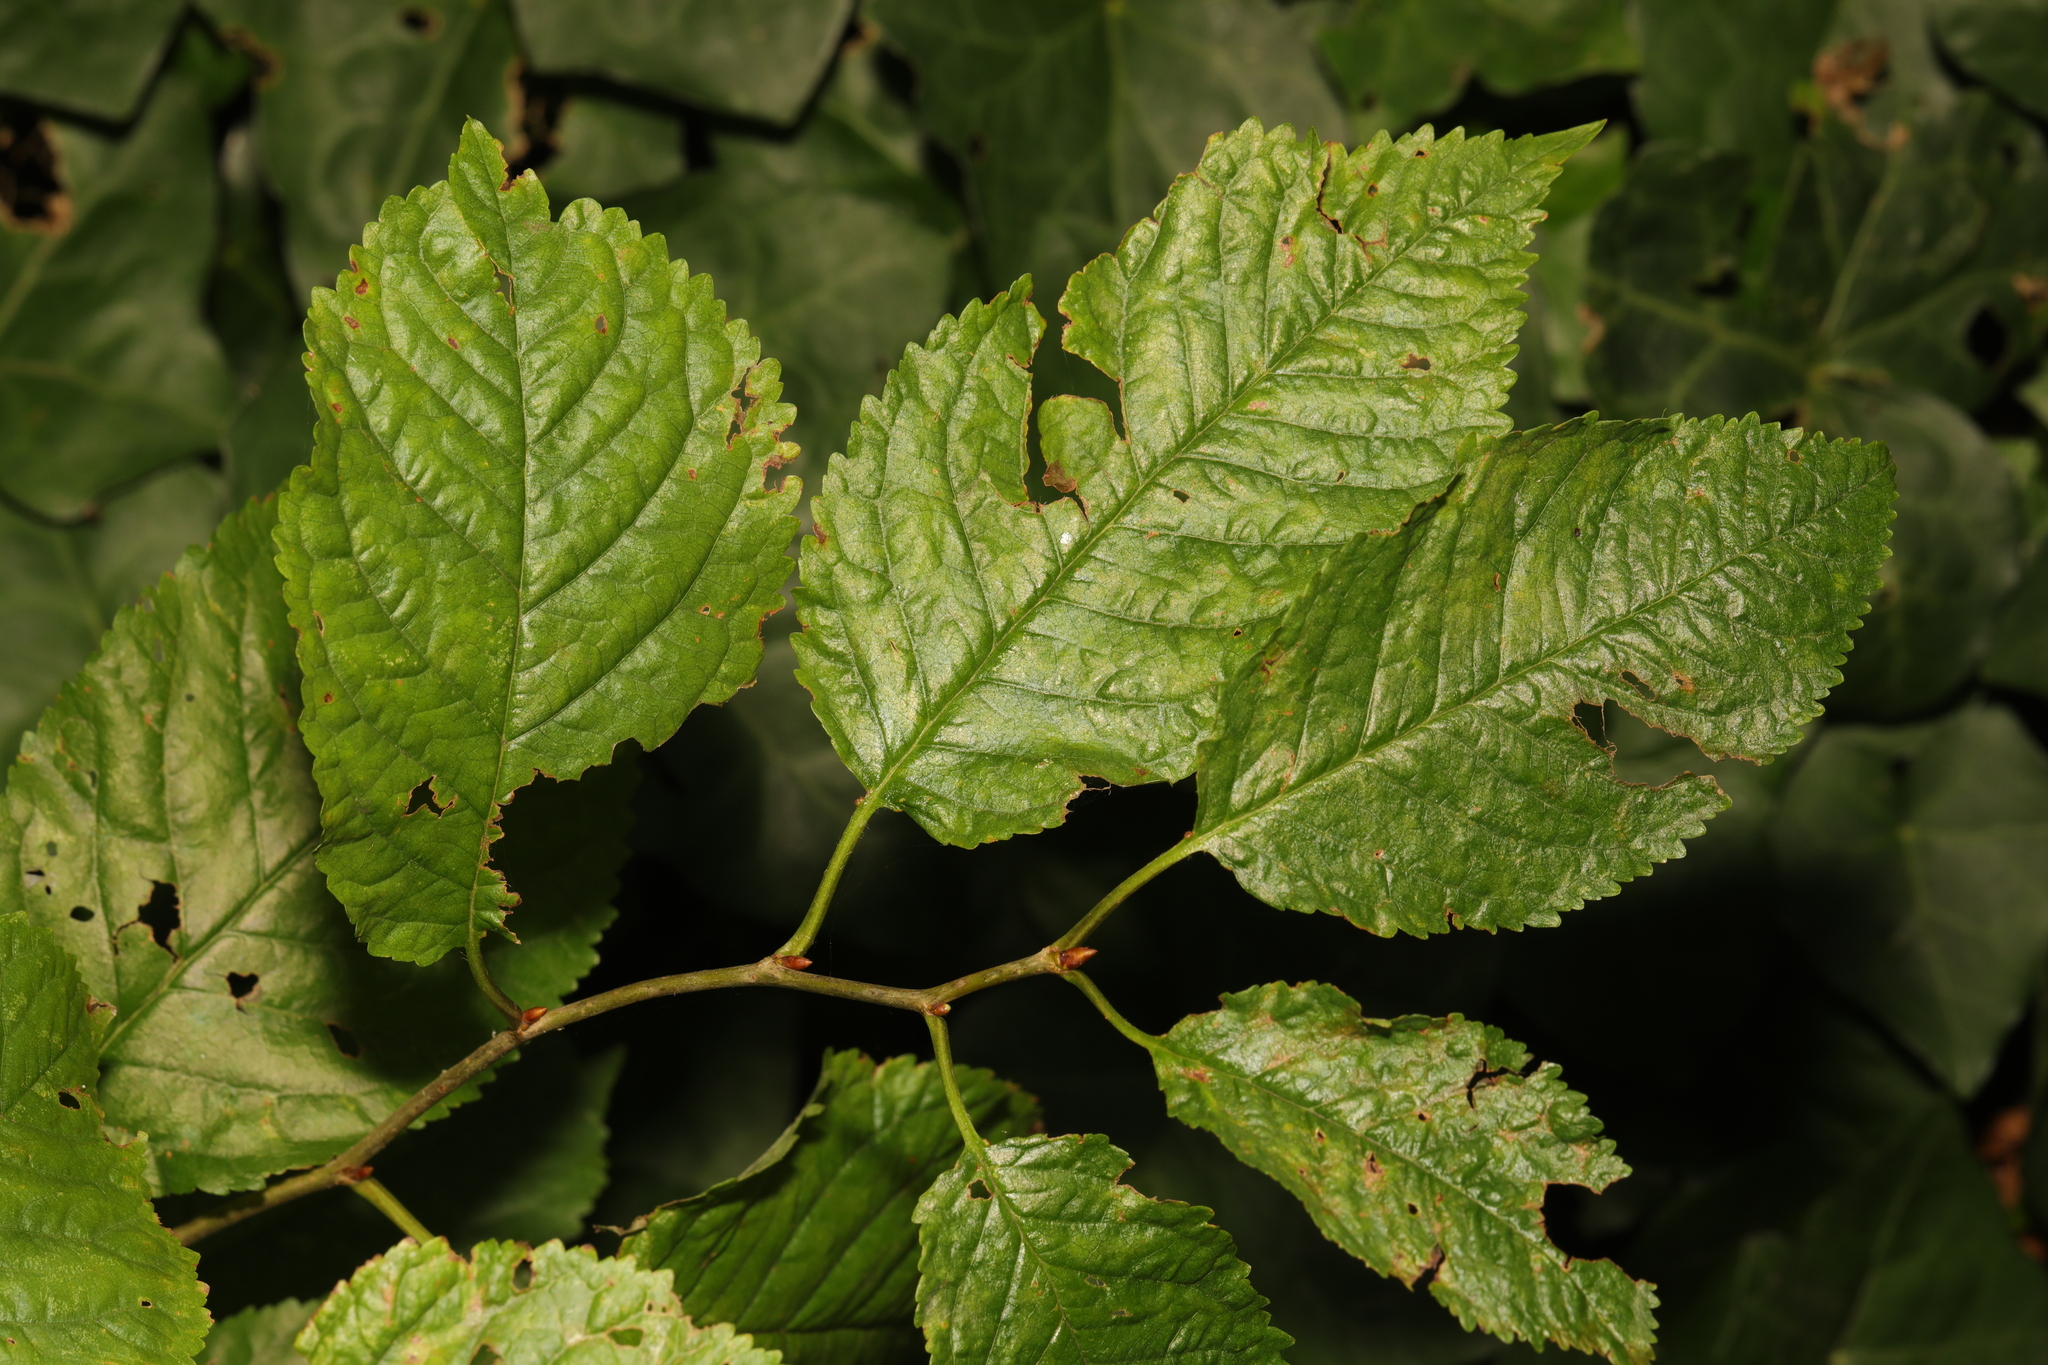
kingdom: Plantae
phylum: Tracheophyta
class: Magnoliopsida
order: Rosales
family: Rosaceae
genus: Prunus
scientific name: Prunus avium
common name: Sweet cherry
